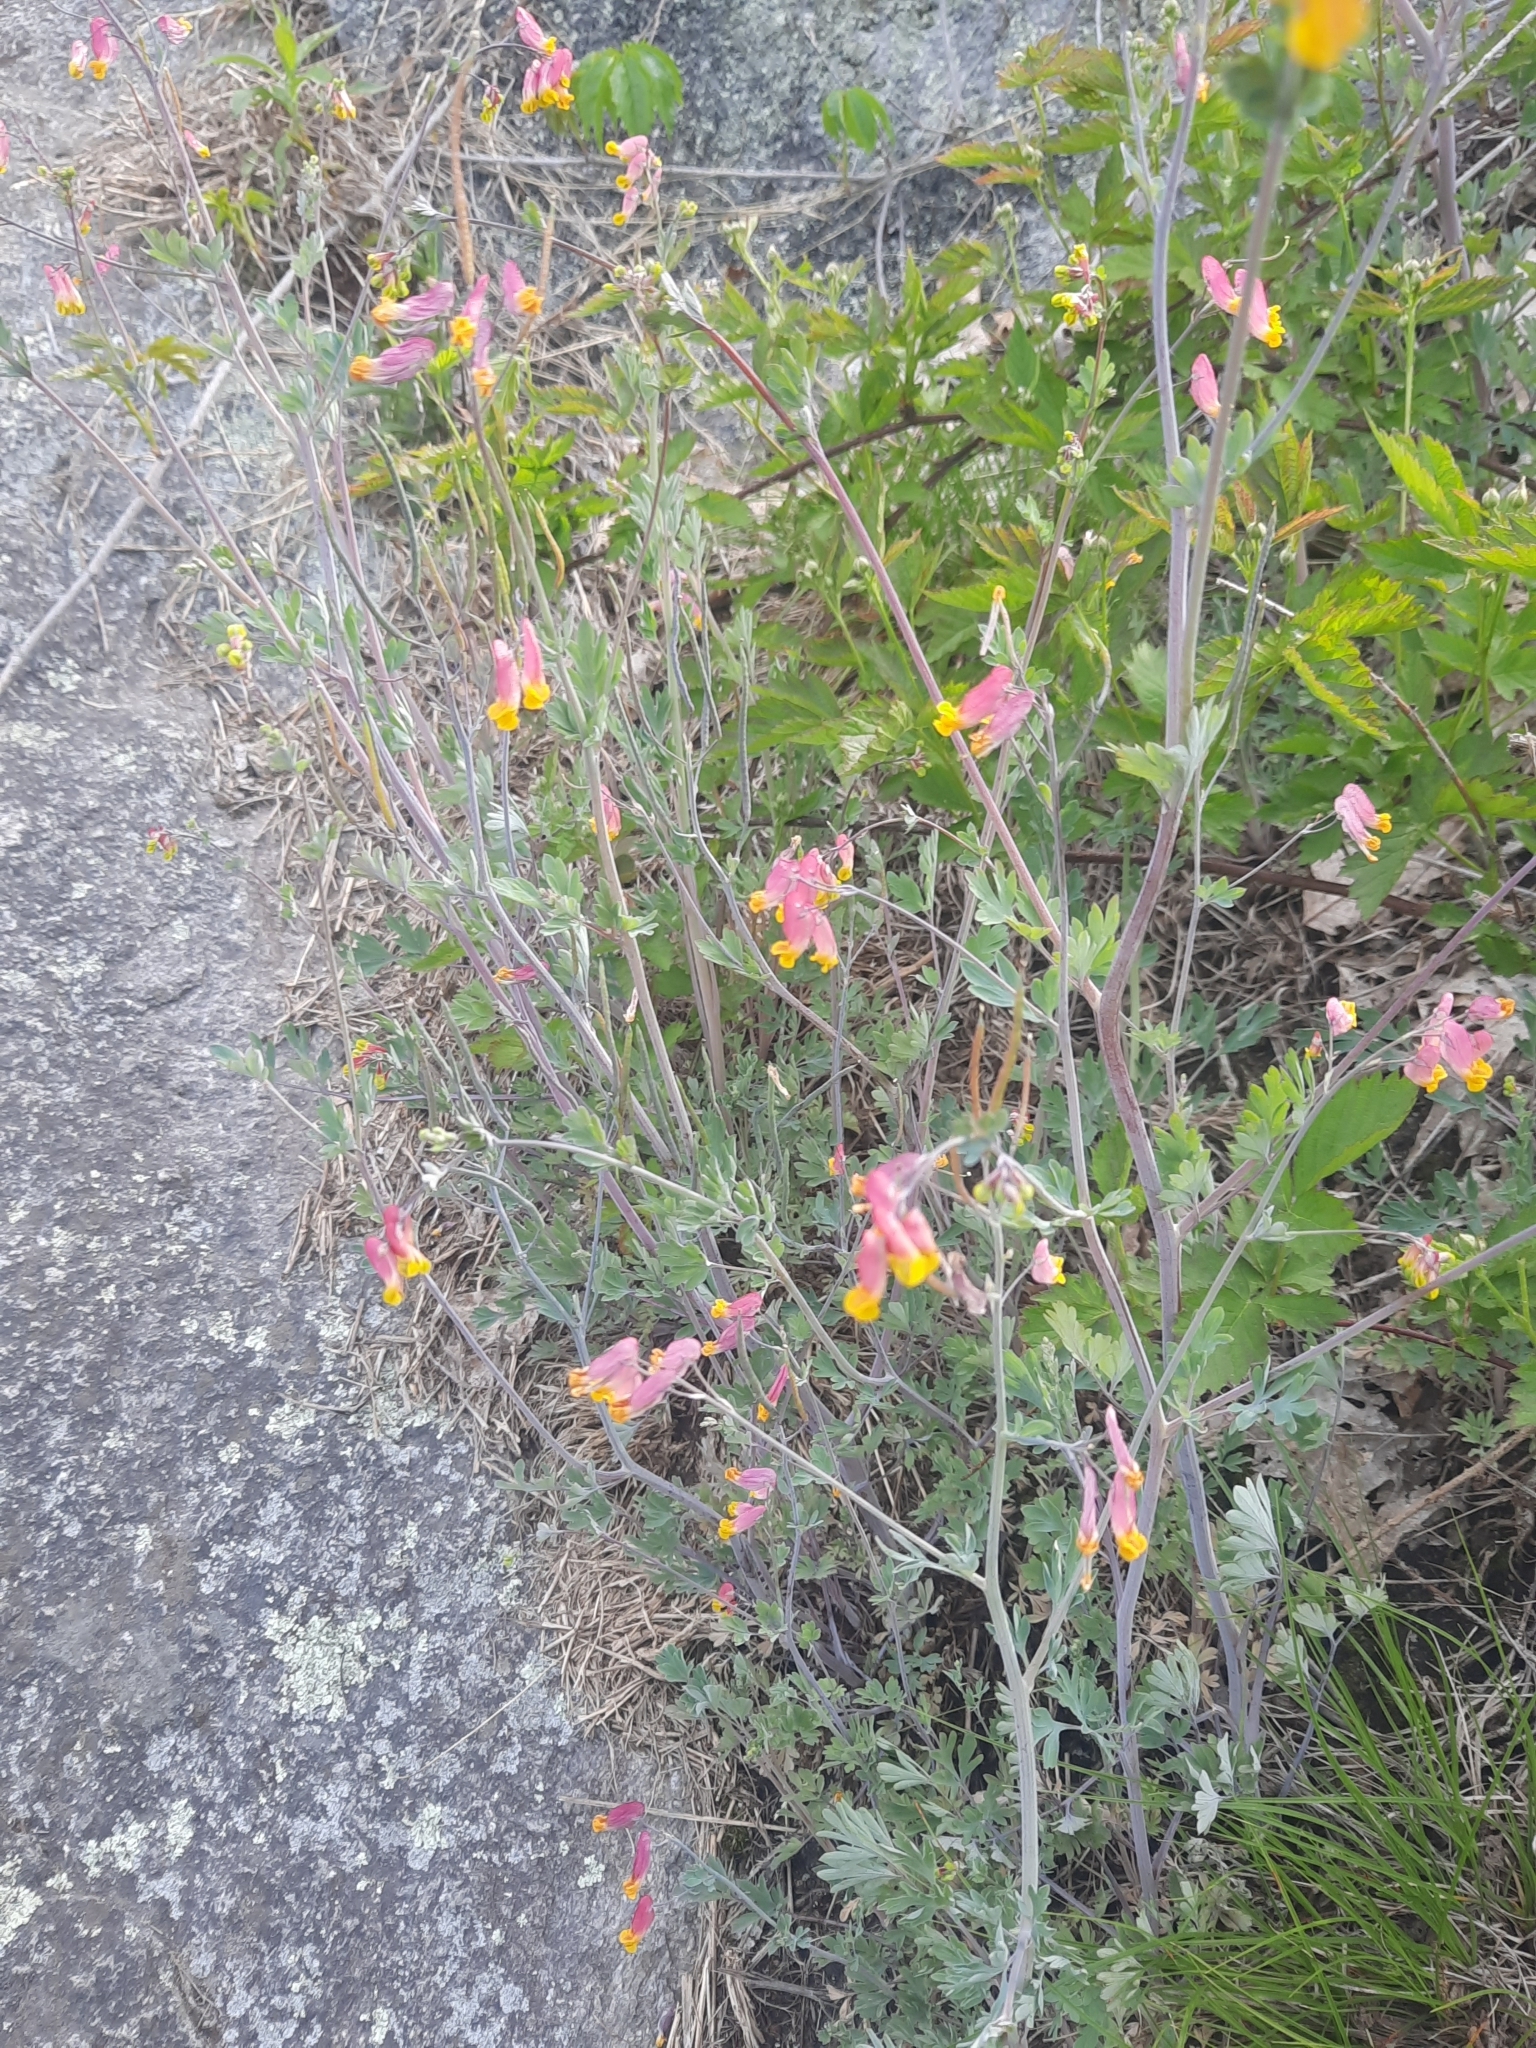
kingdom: Plantae
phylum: Tracheophyta
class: Magnoliopsida
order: Ranunculales
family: Papaveraceae
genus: Capnoides
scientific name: Capnoides sempervirens
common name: Rock harlequin
